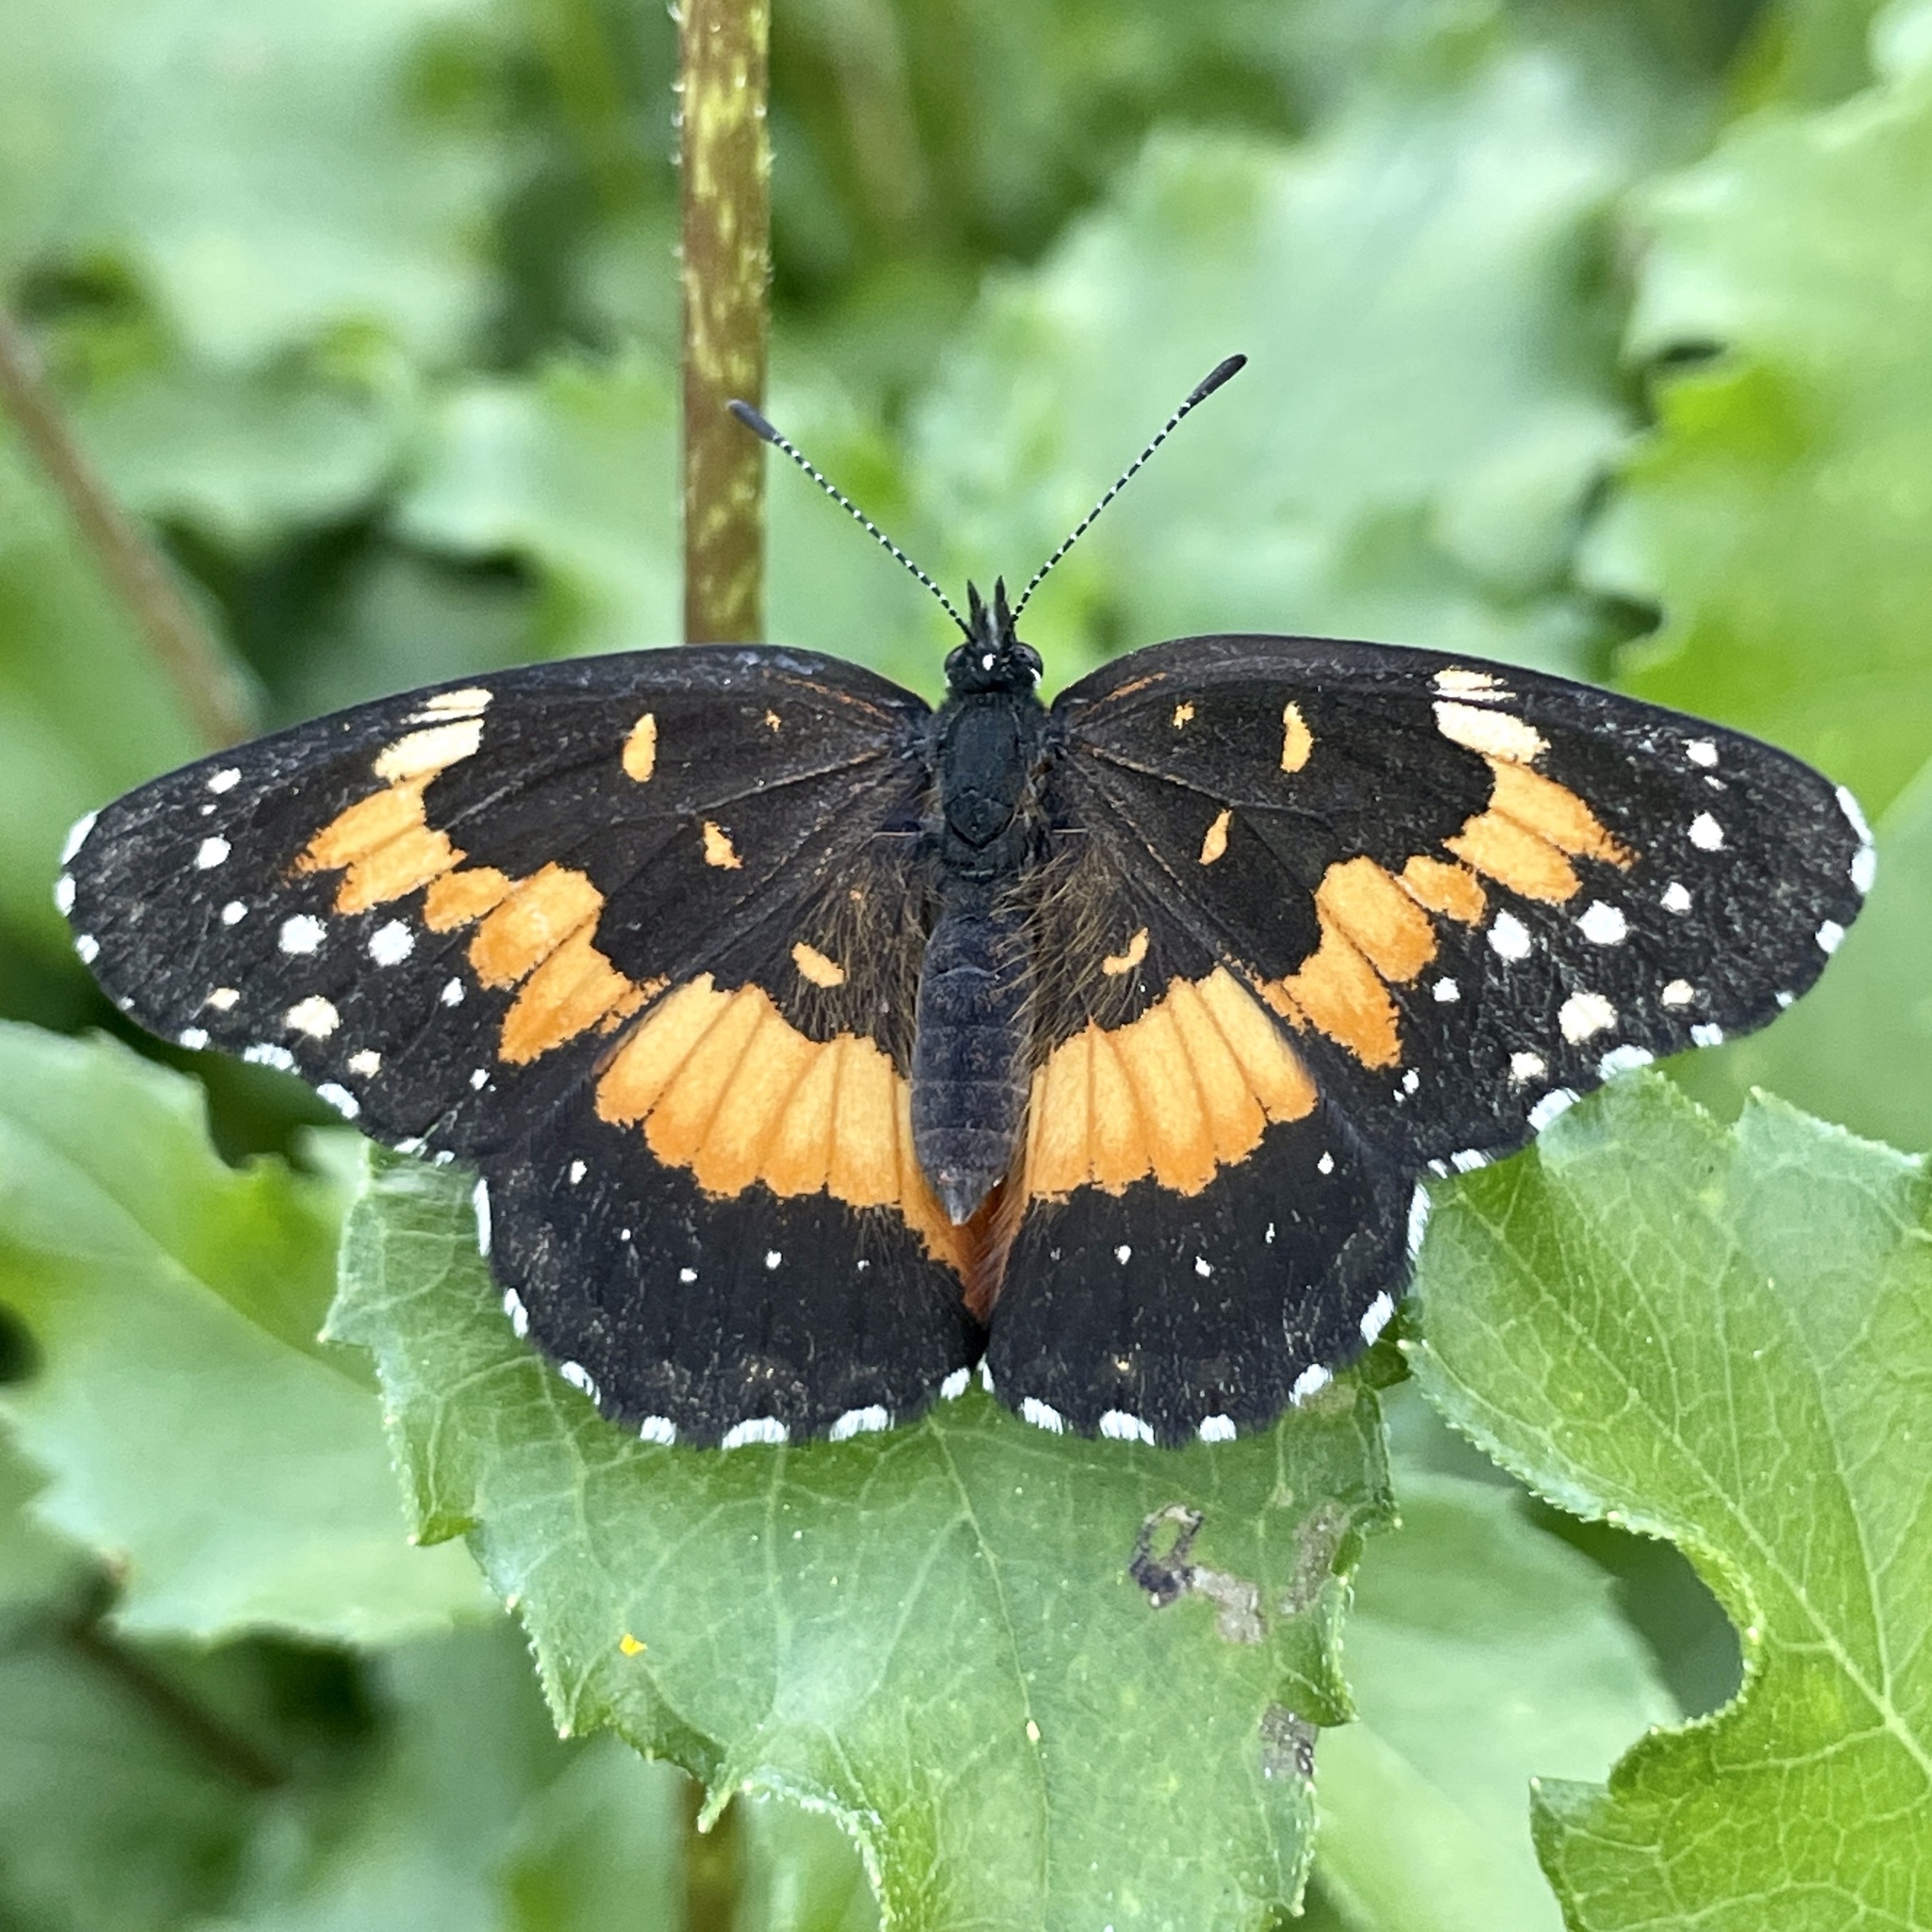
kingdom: Animalia
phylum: Arthropoda
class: Insecta
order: Lepidoptera
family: Nymphalidae
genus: Chlosyne
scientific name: Chlosyne lacinia
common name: Bordered patch
